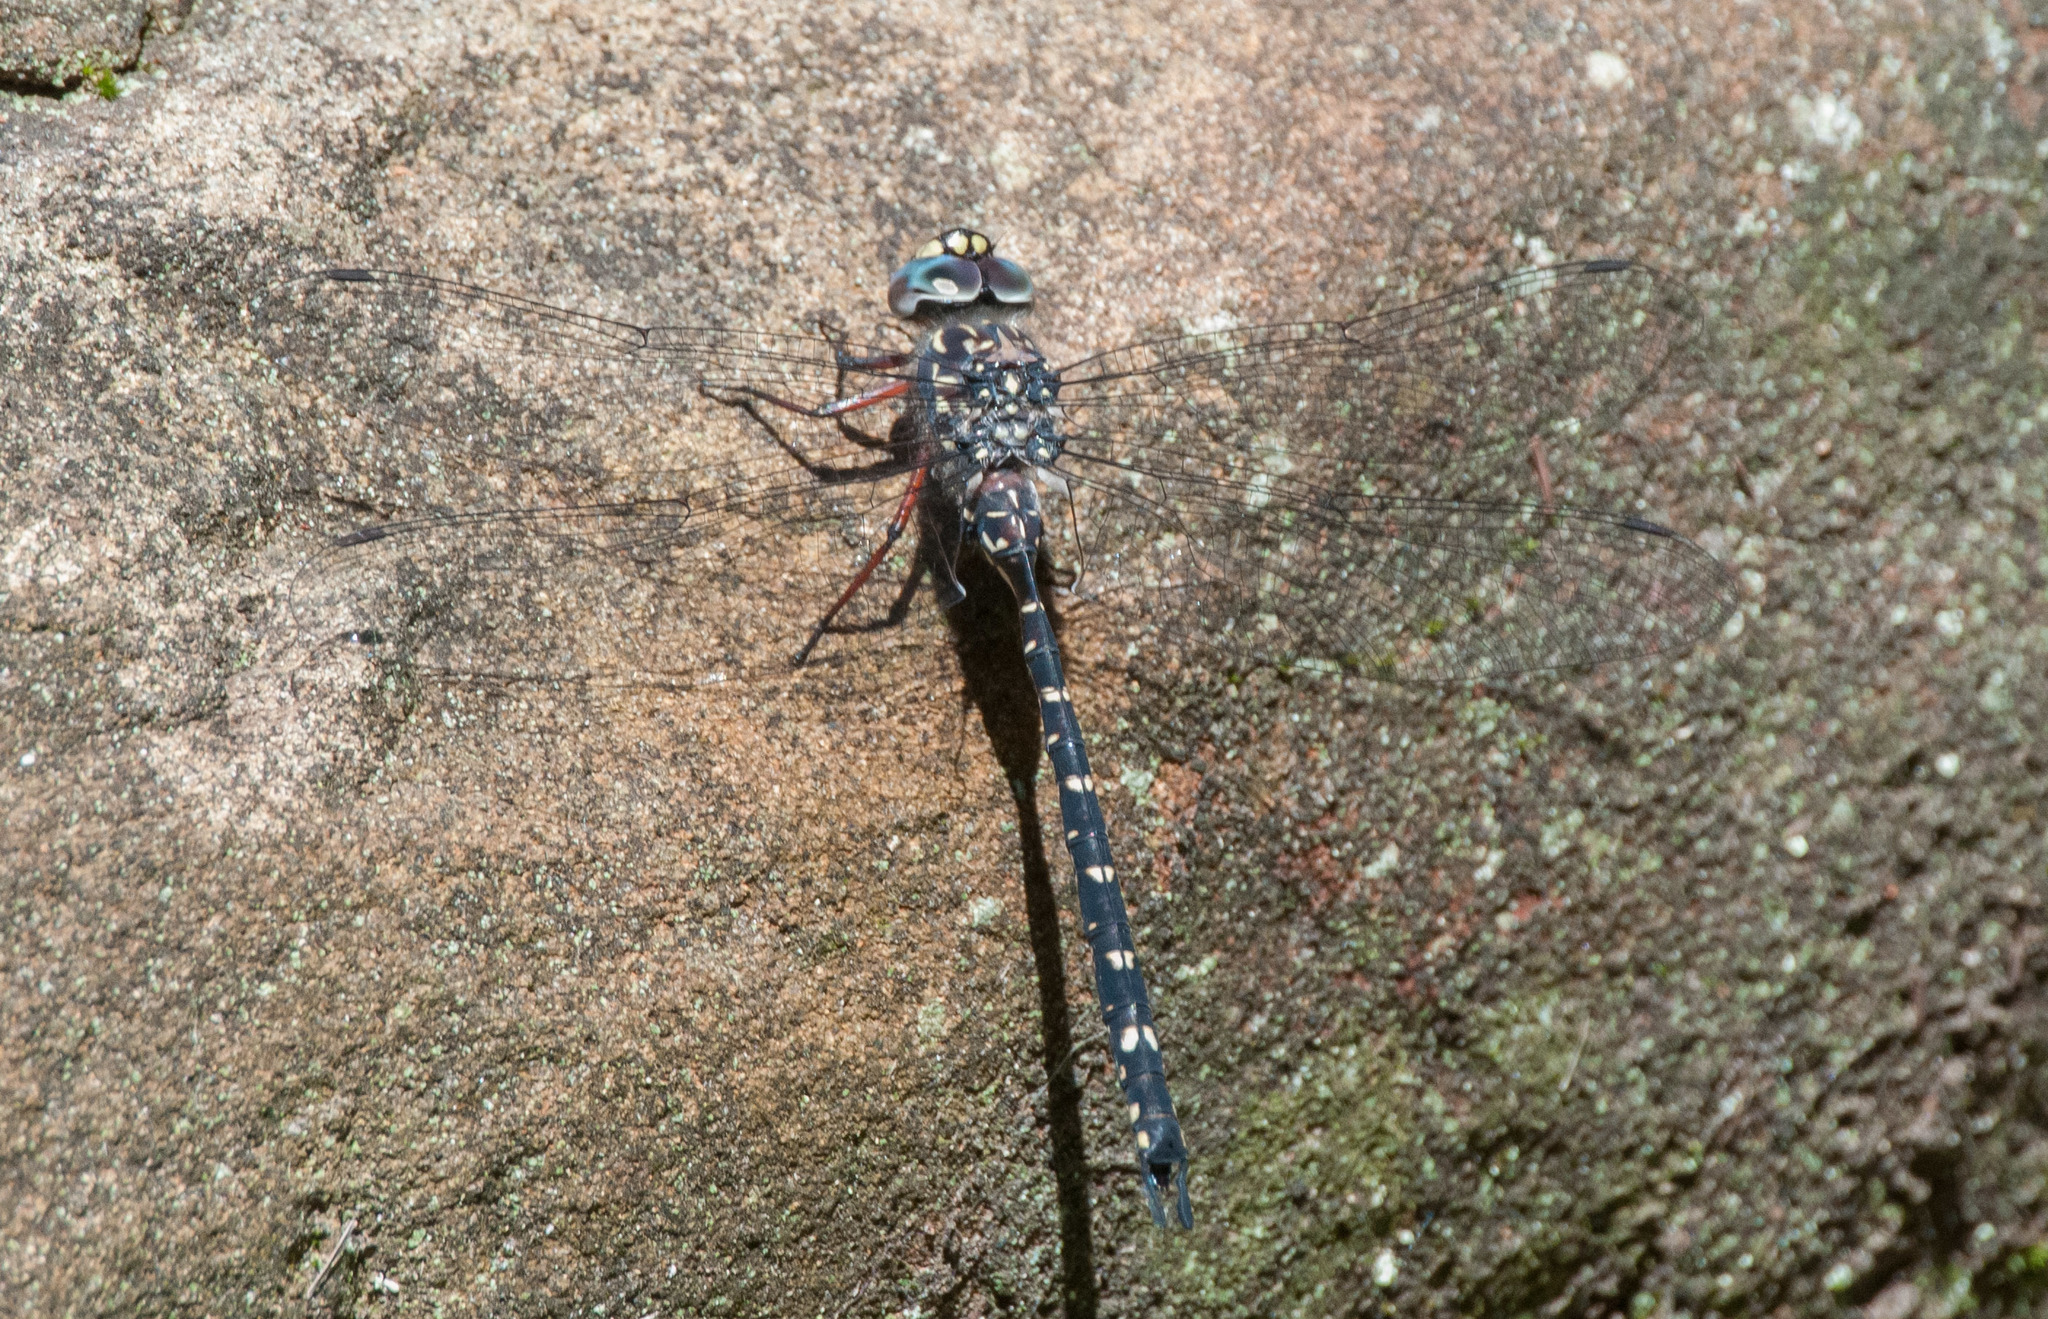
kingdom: Animalia
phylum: Arthropoda
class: Insecta
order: Odonata
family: Aeshnidae
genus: Austroaeschna
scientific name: Austroaeschna multipunctata
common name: Multi-spotted darner
